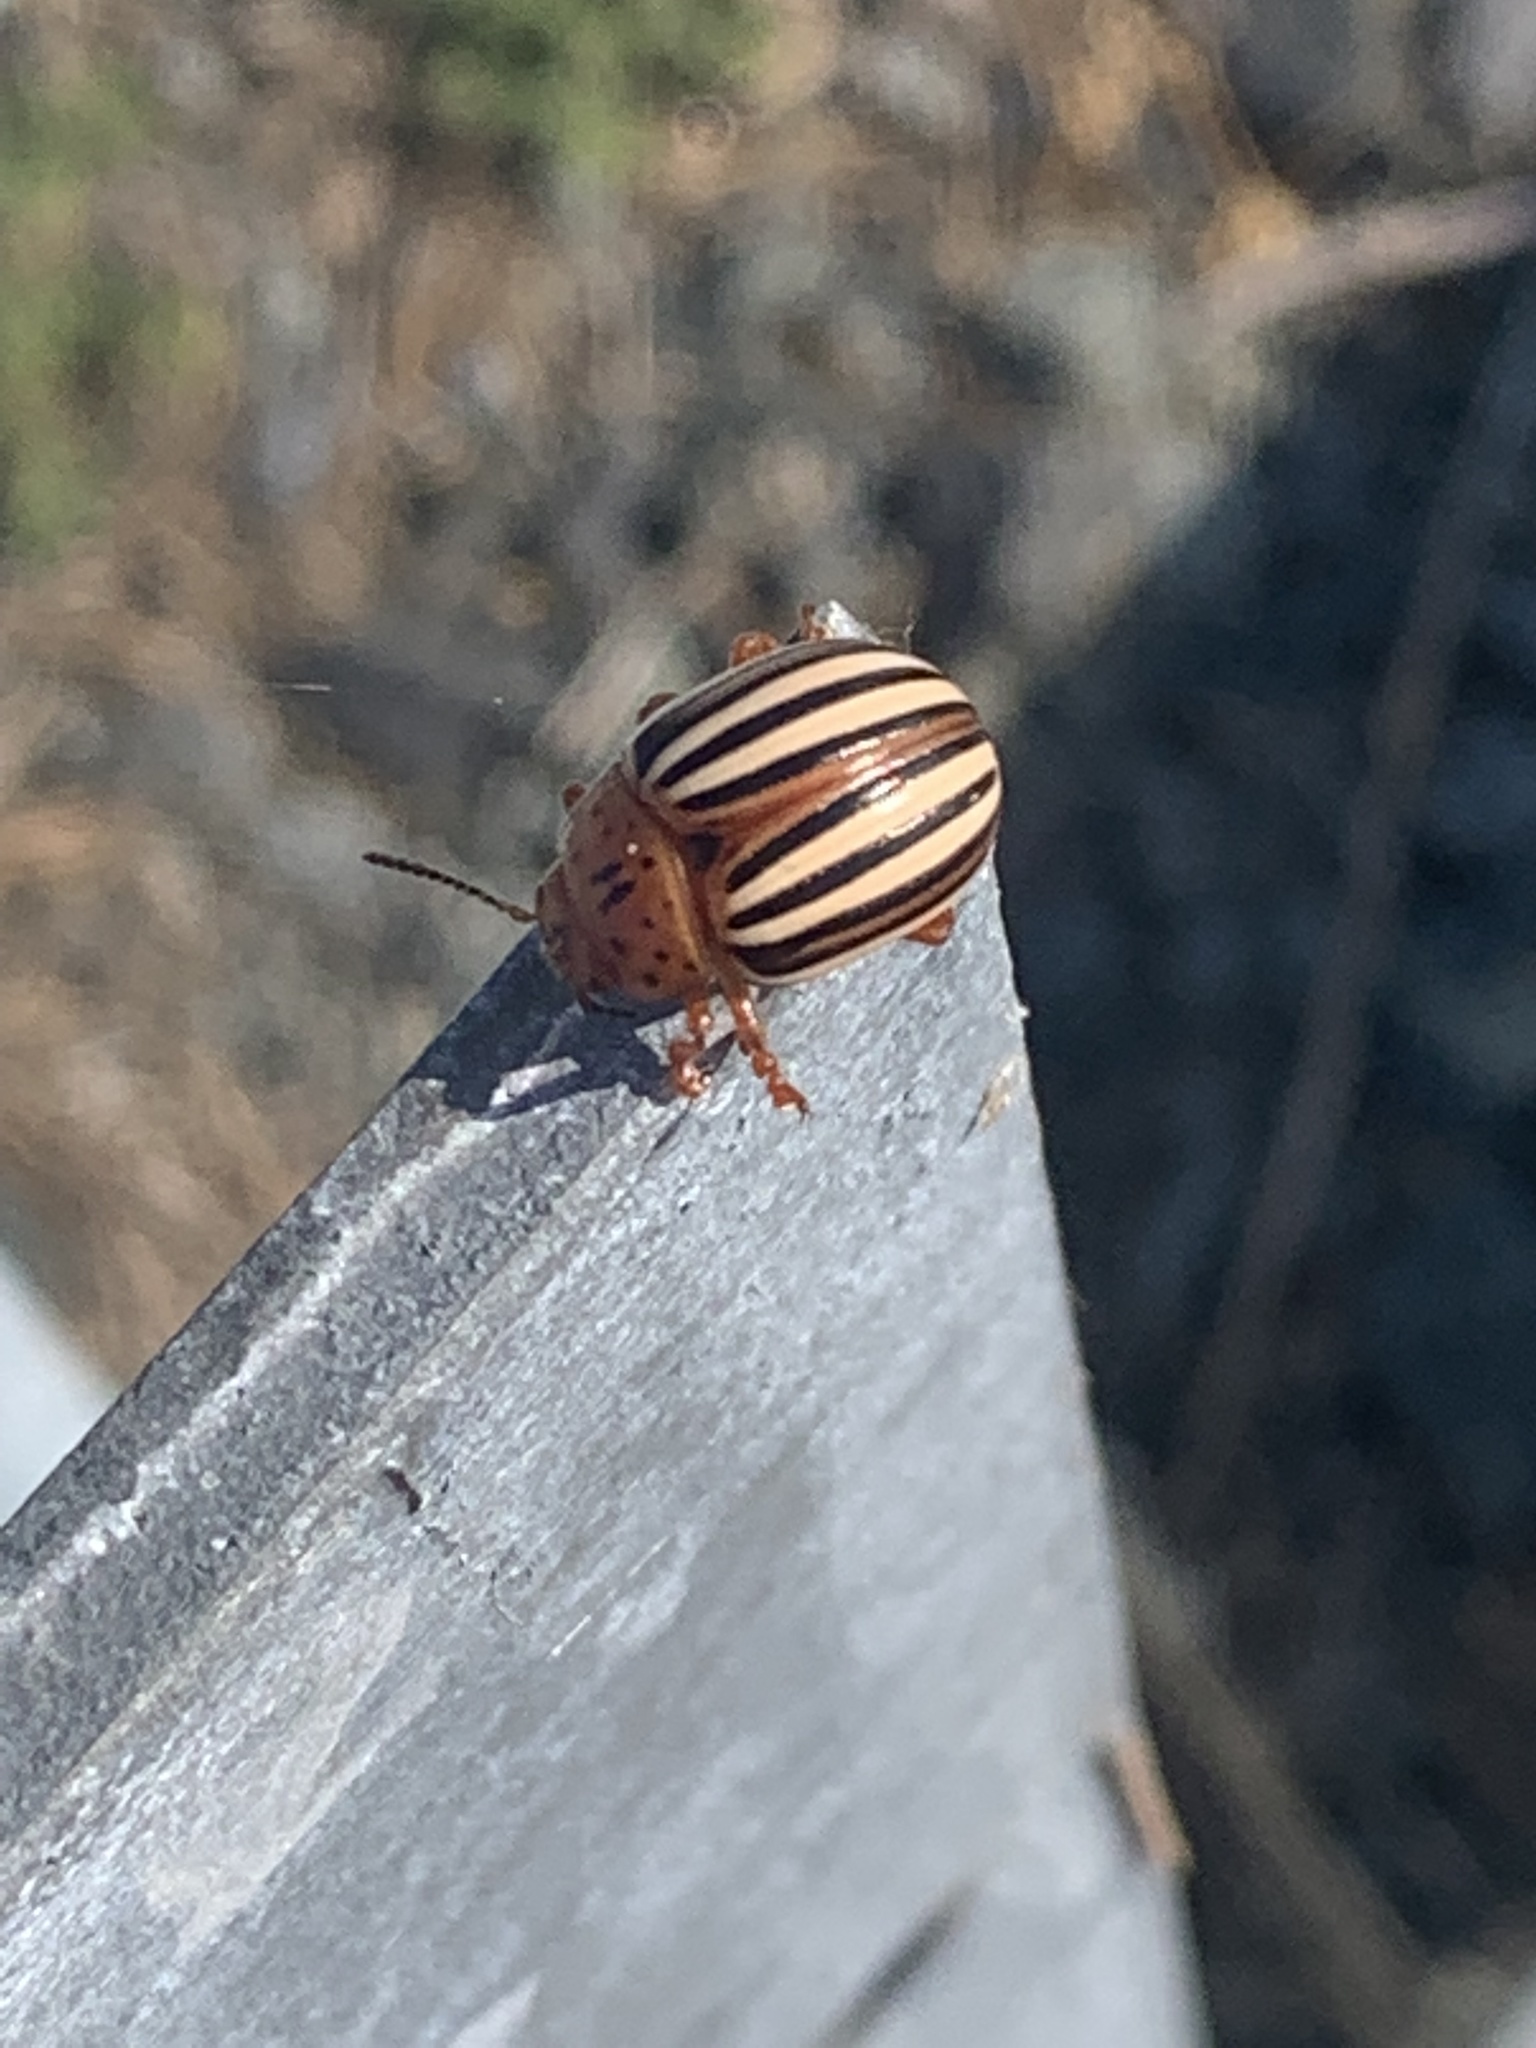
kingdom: Animalia
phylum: Arthropoda
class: Insecta
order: Coleoptera
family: Chrysomelidae
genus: Leptinotarsa
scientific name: Leptinotarsa juncta
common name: False potato beetle
